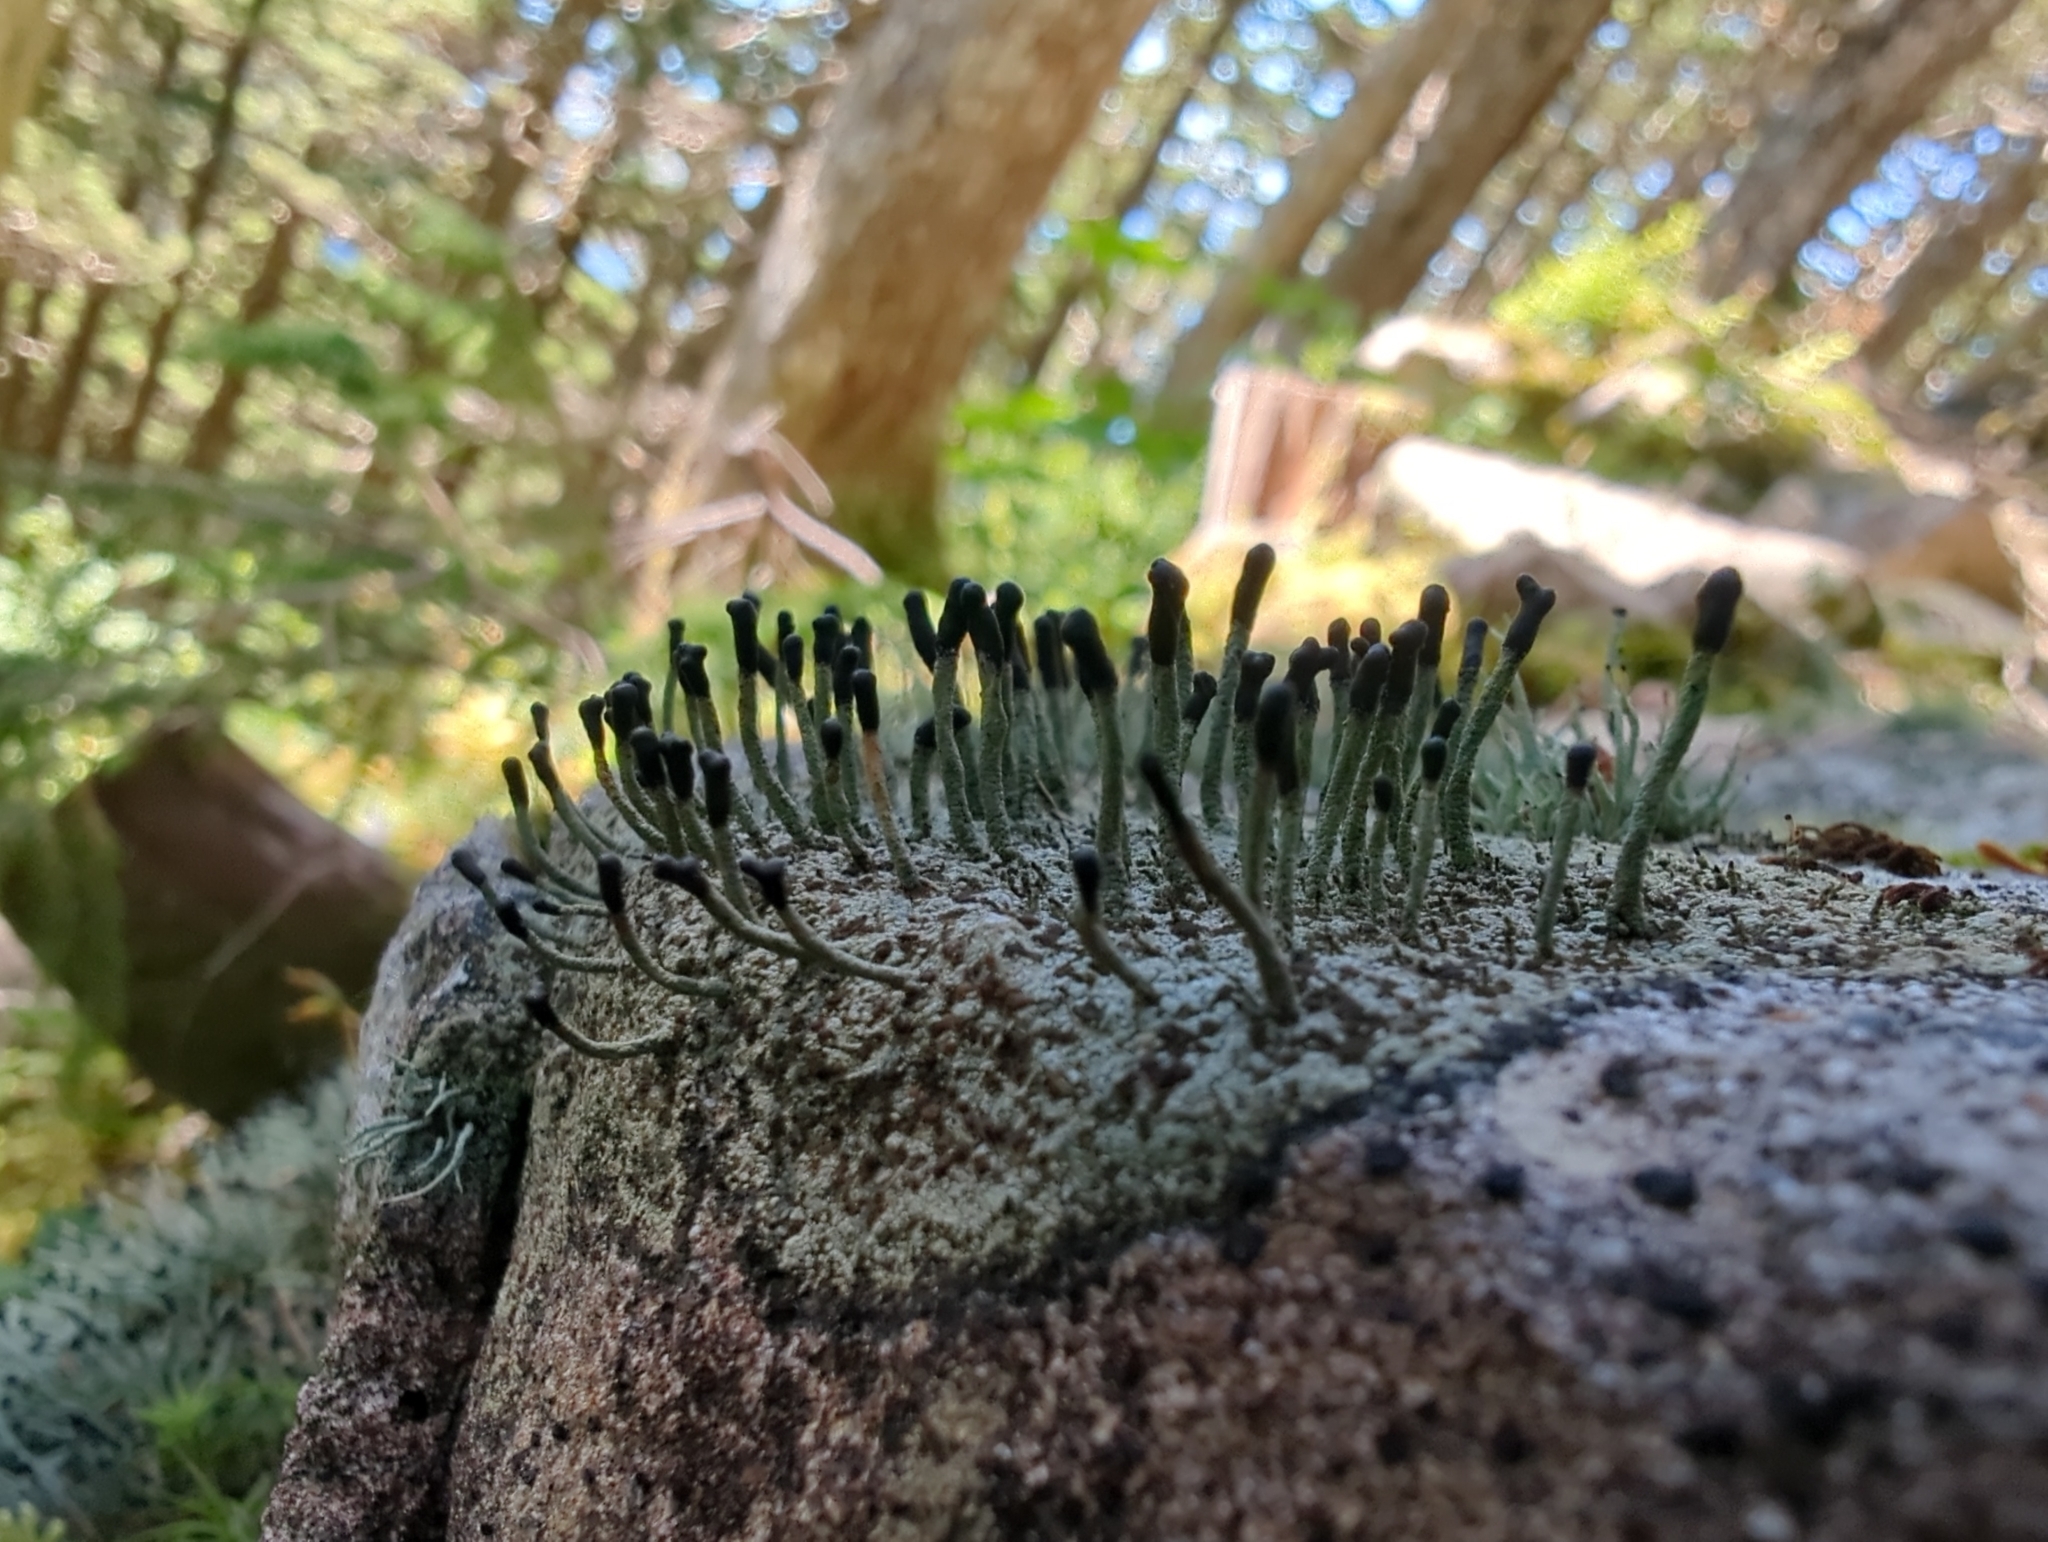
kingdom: Fungi
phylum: Ascomycota
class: Lecanoromycetes
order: Lecanorales
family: Cladoniaceae
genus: Pilophorus
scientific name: Pilophorus clavatus
